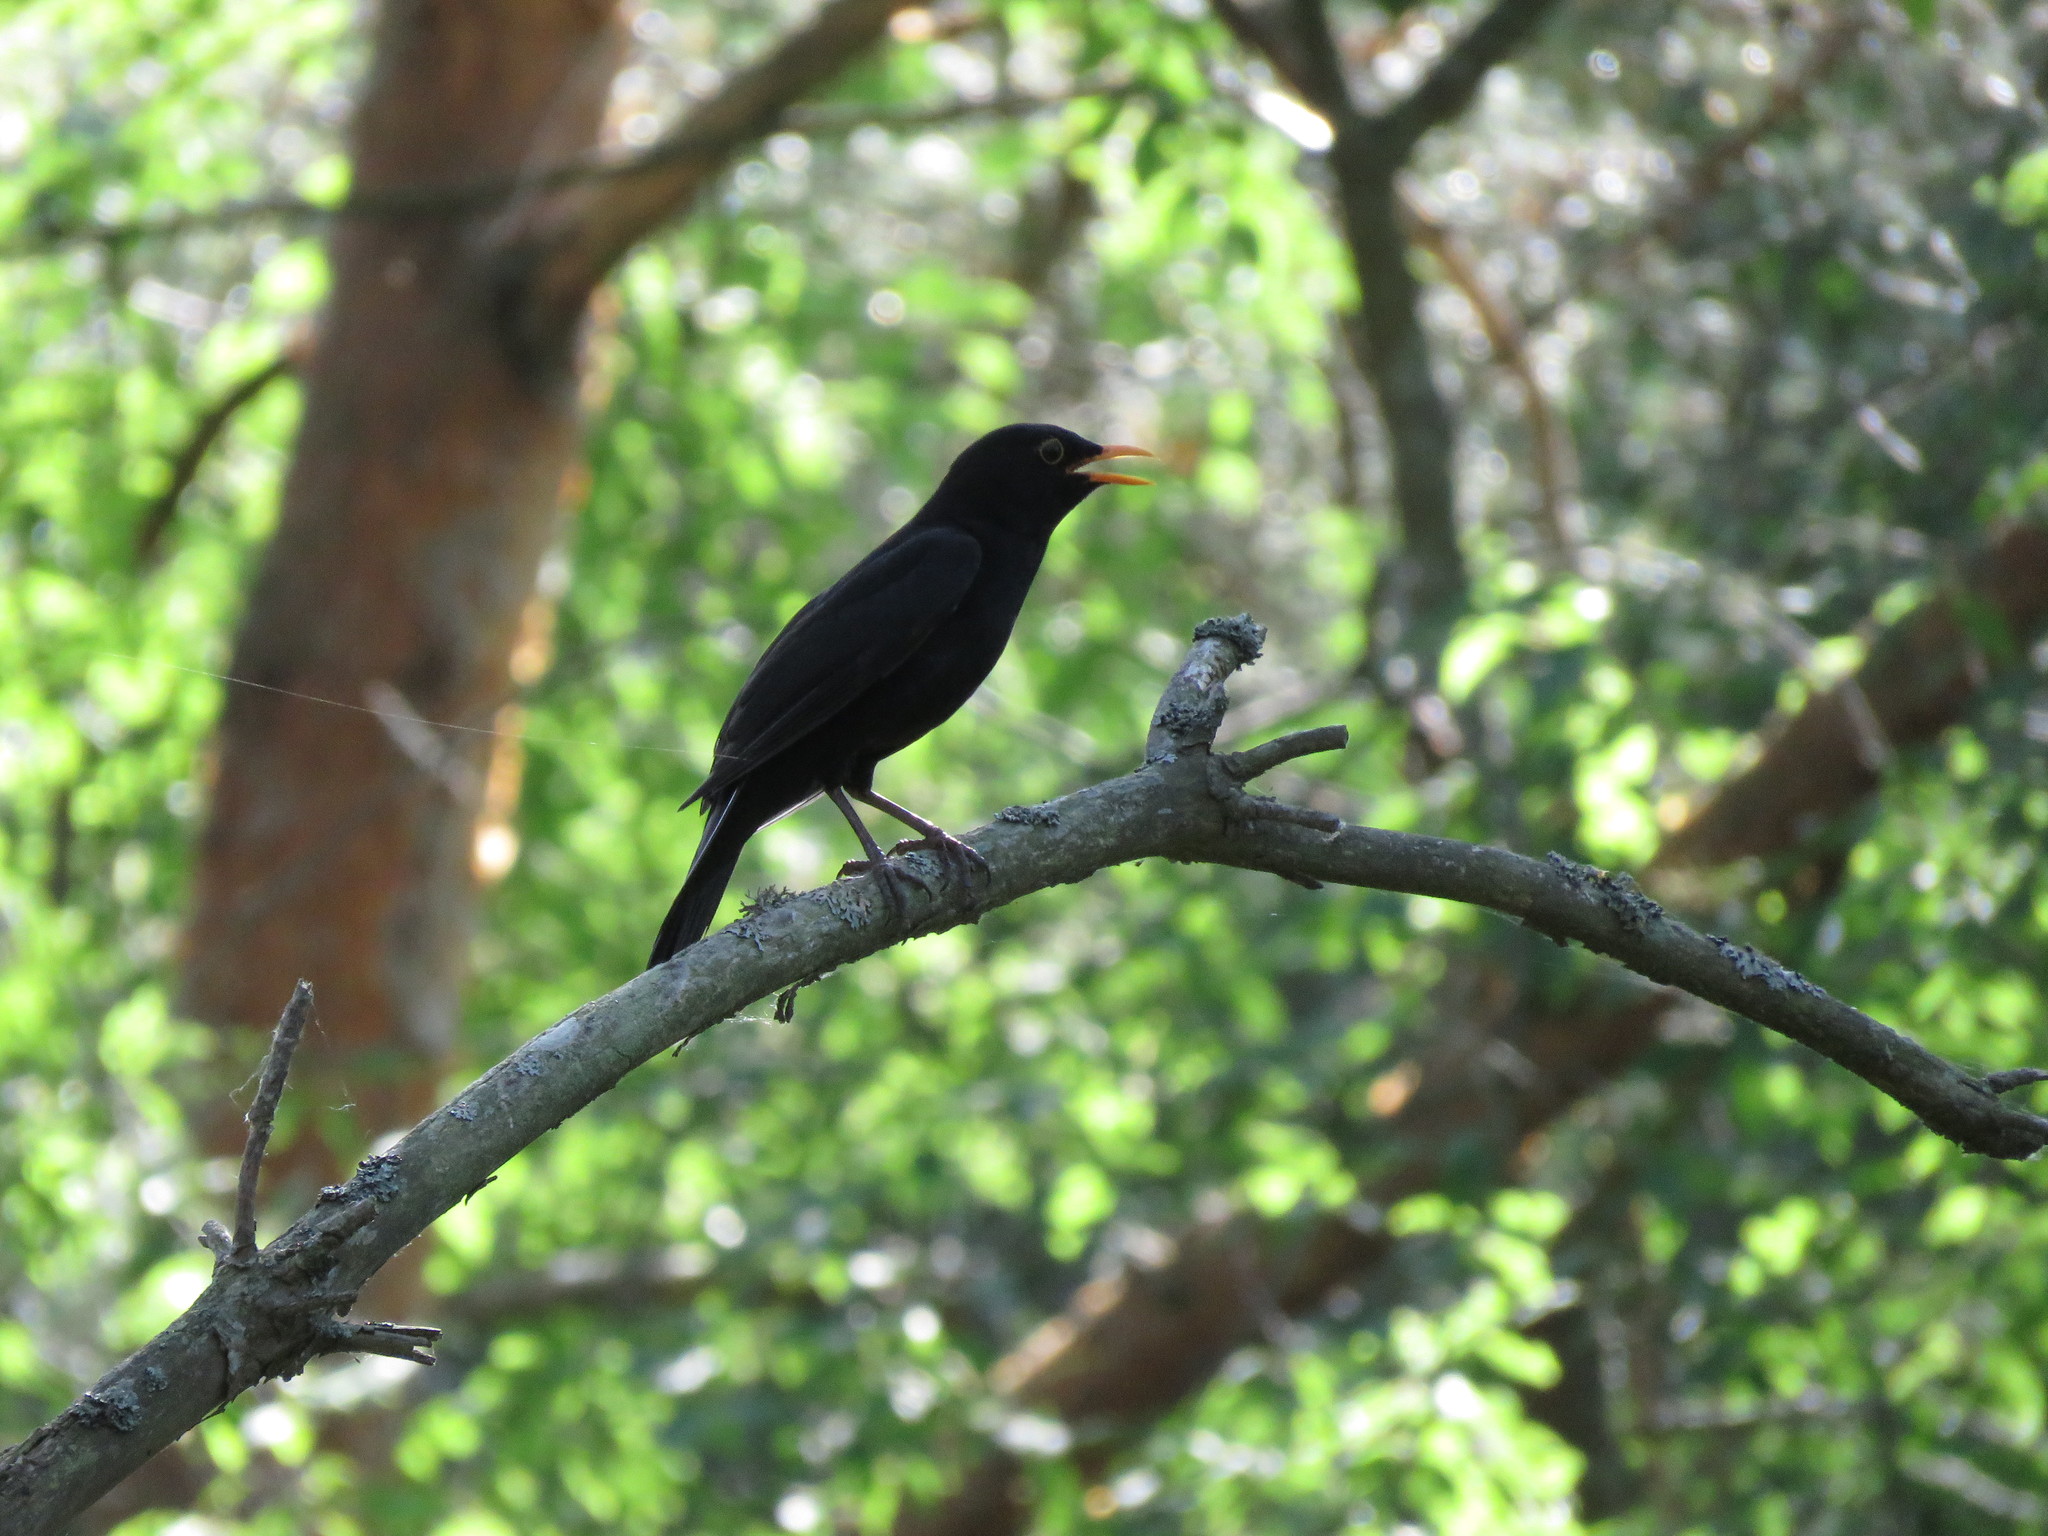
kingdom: Animalia
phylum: Chordata
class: Aves
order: Passeriformes
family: Turdidae
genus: Turdus
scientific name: Turdus merula
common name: Common blackbird
